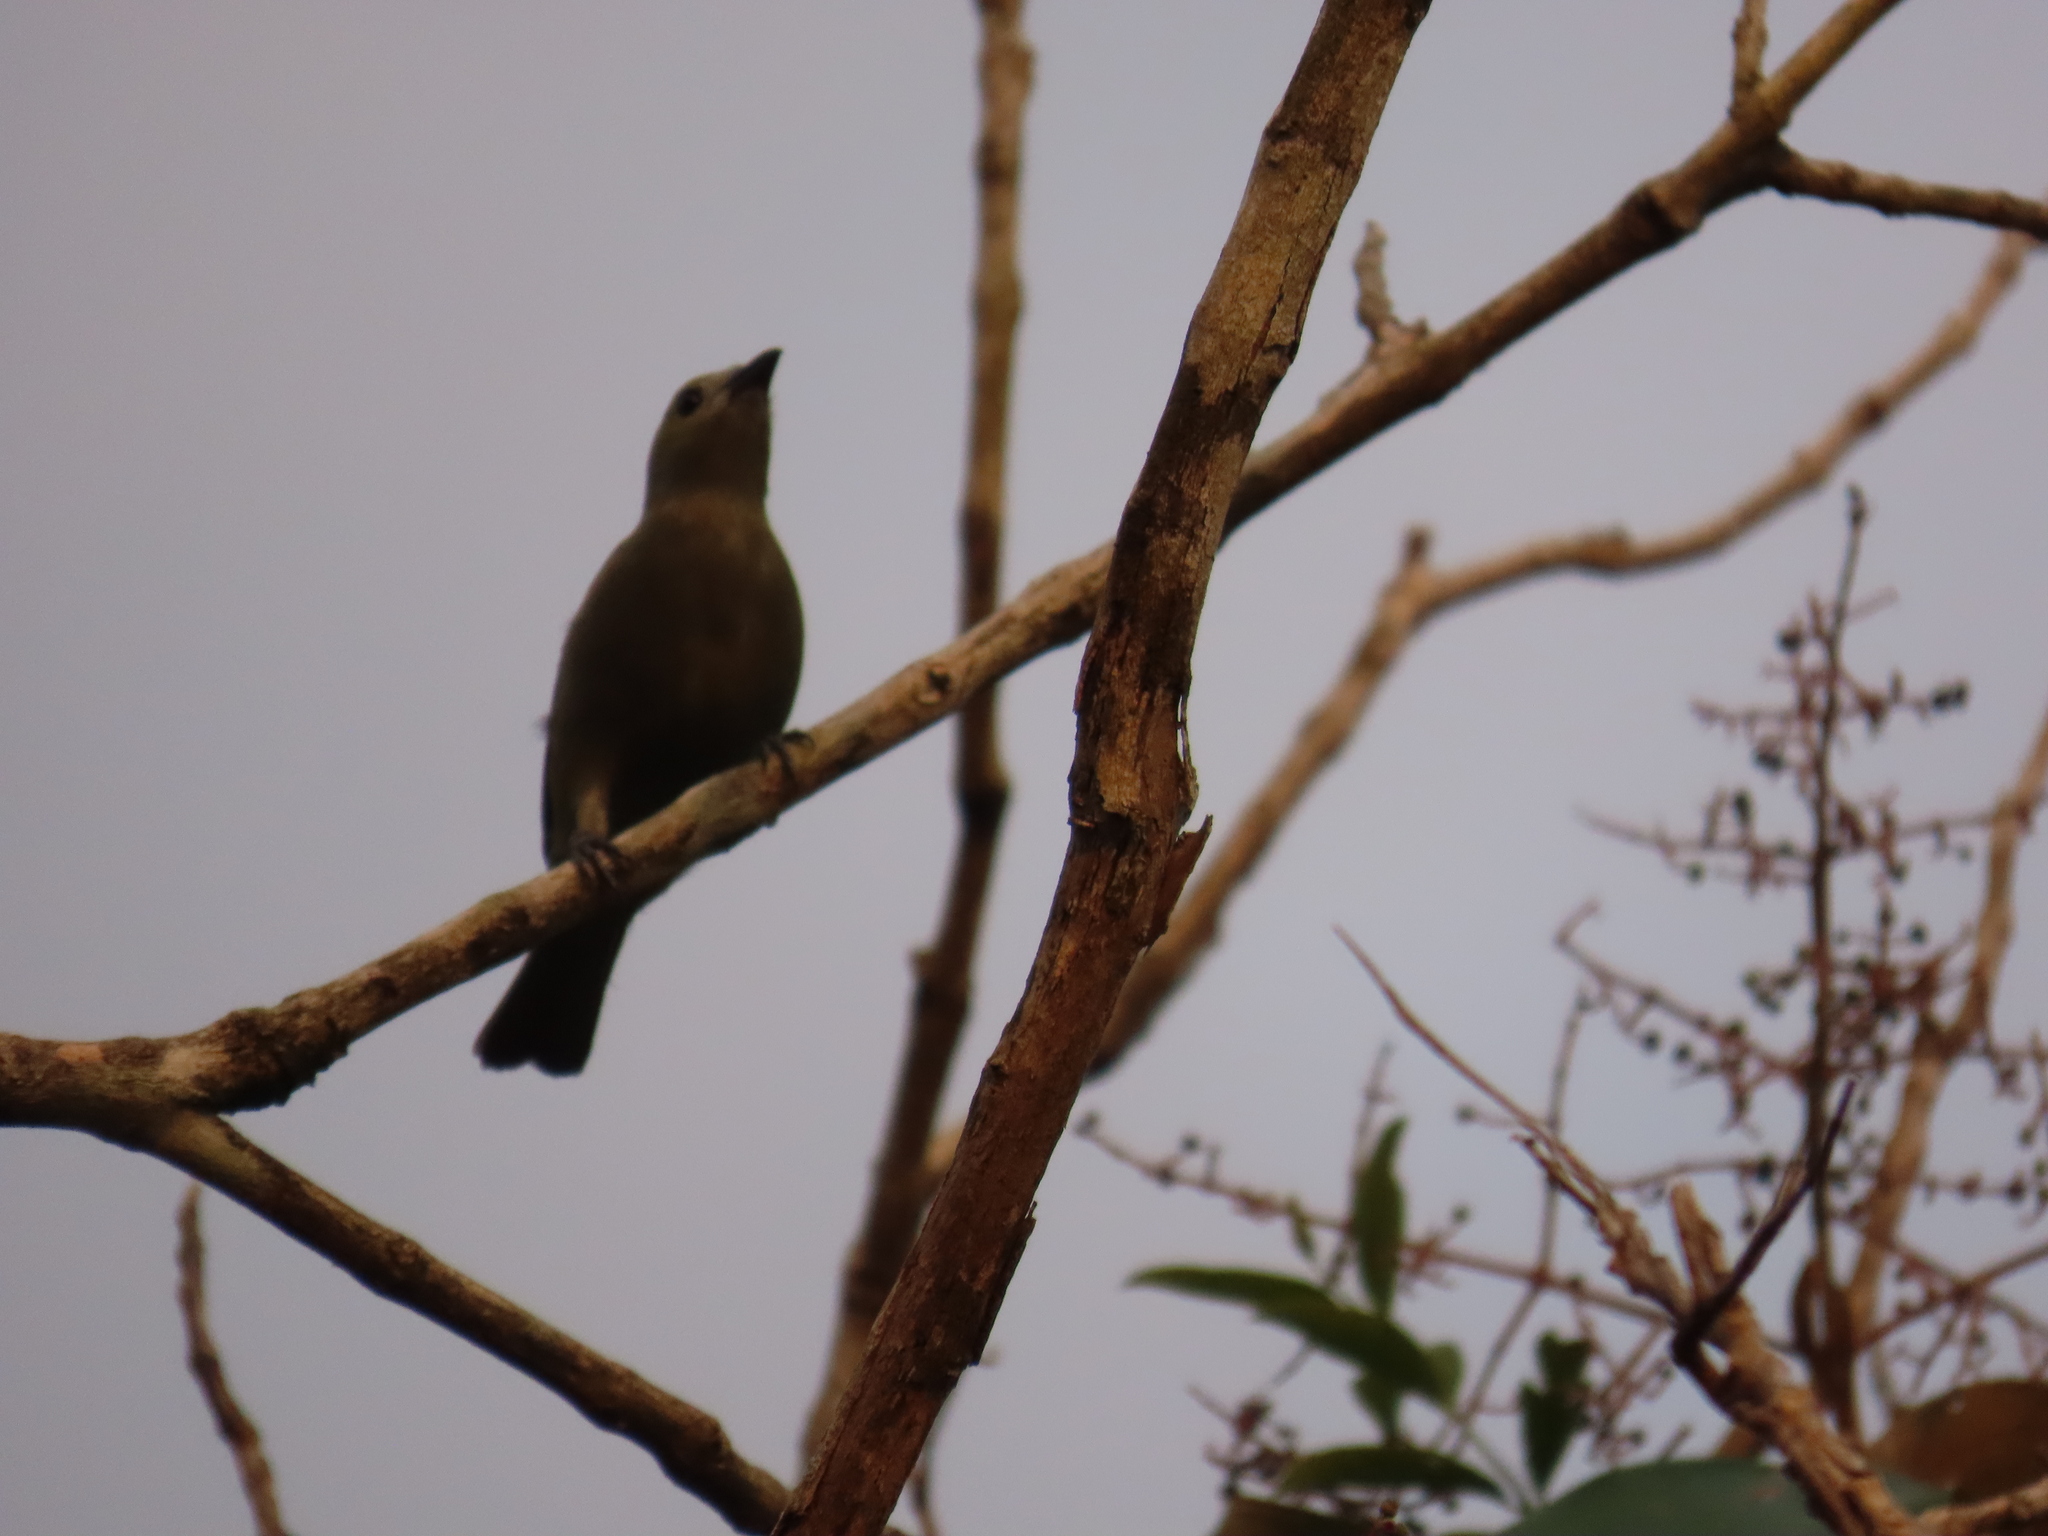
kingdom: Animalia
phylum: Chordata
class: Aves
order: Passeriformes
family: Thraupidae
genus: Thraupis
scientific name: Thraupis palmarum
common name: Palm tanager
